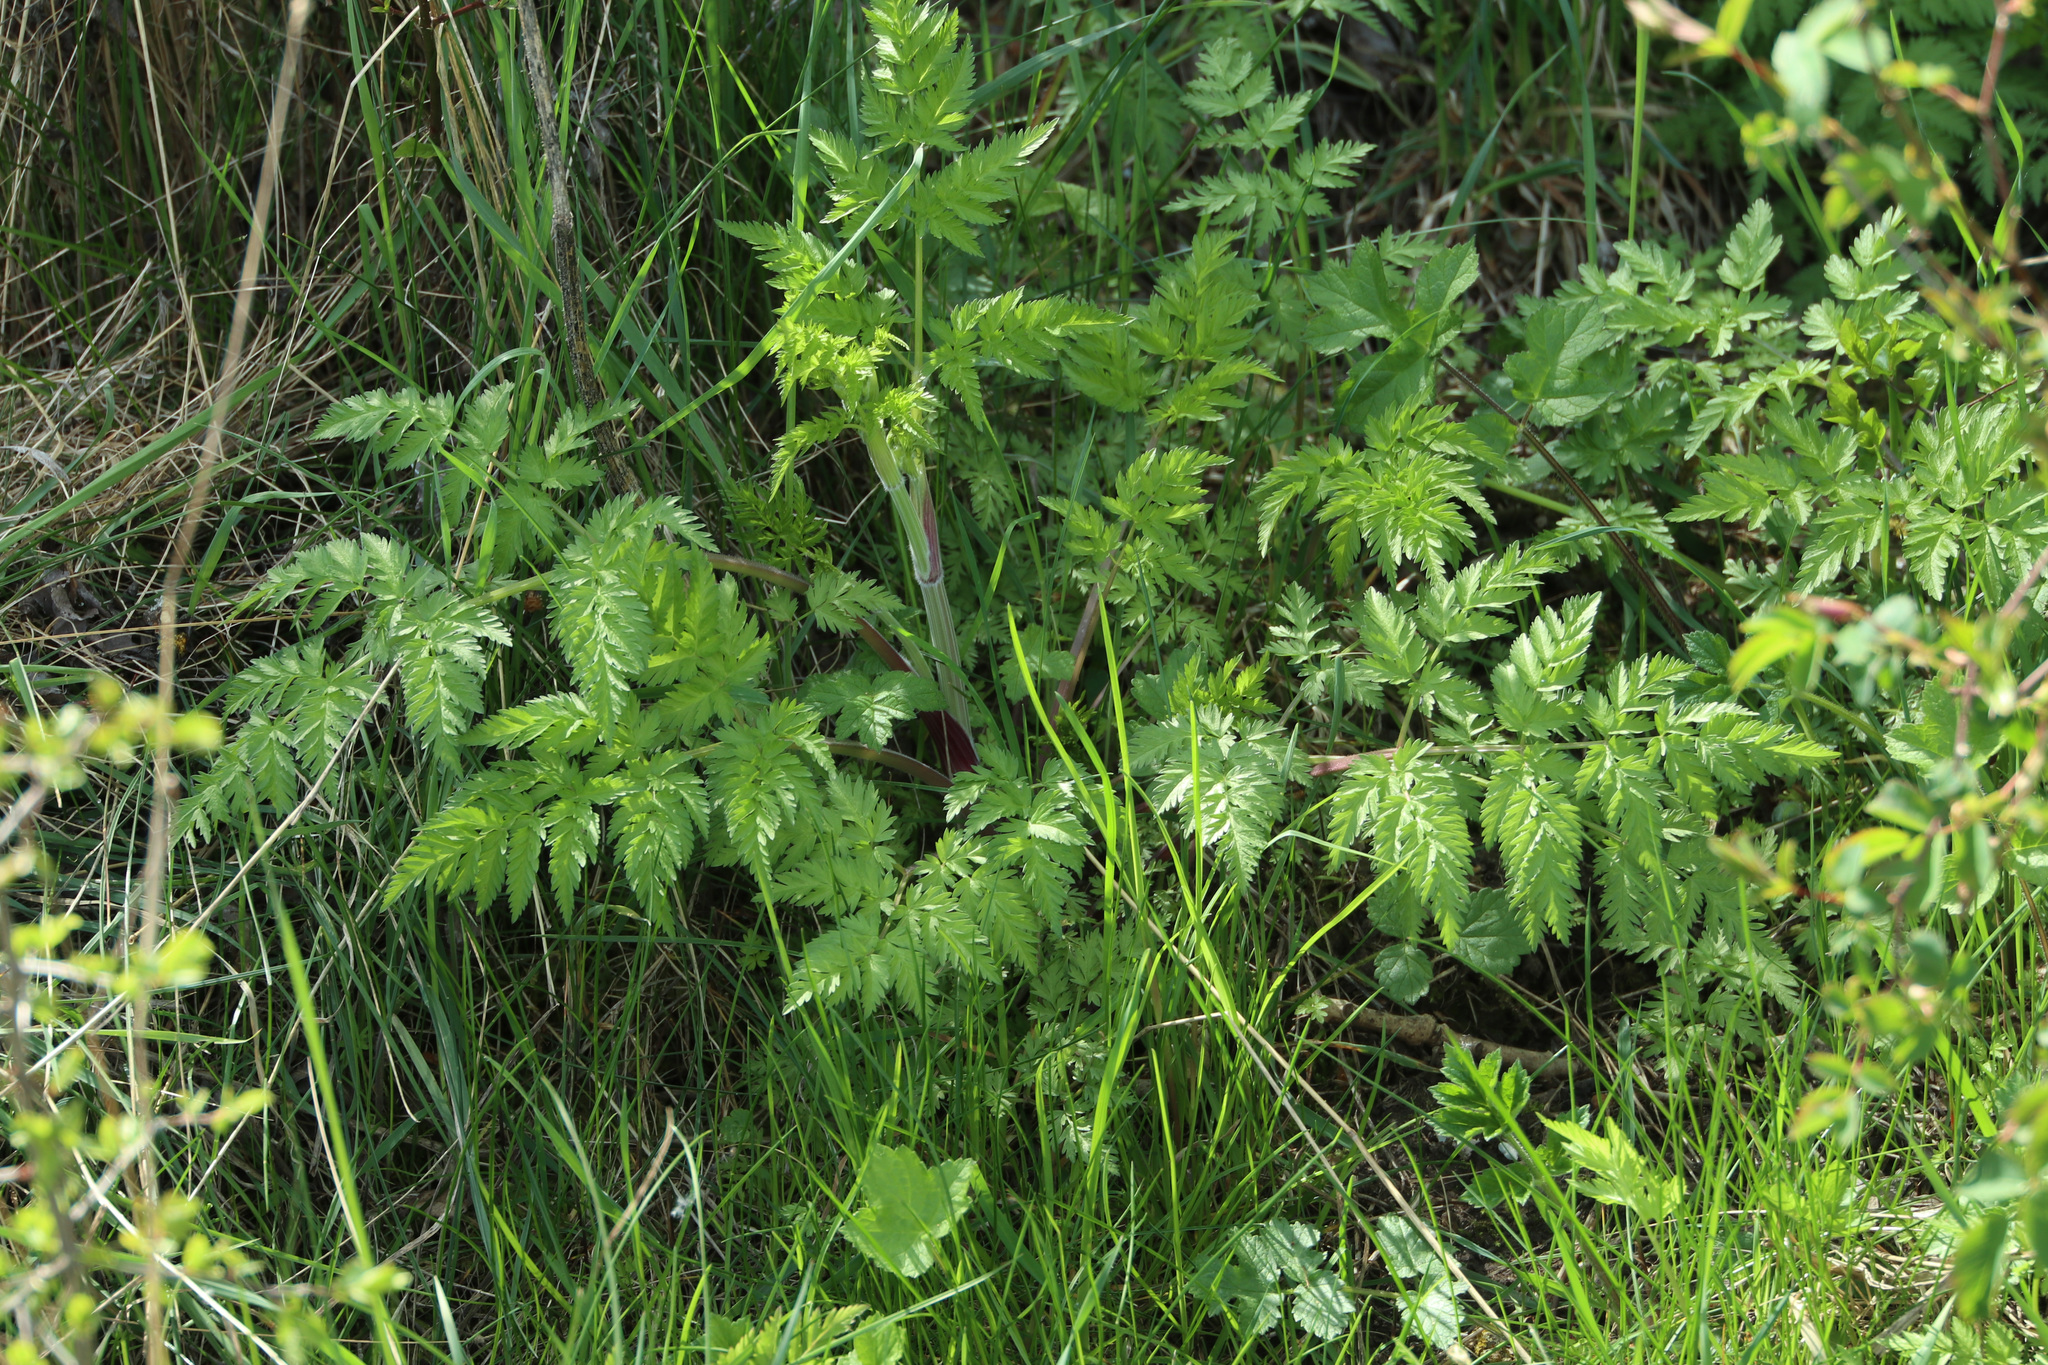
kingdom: Plantae
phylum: Tracheophyta
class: Magnoliopsida
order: Apiales
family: Apiaceae
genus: Anthriscus
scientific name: Anthriscus sylvestris
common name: Cow parsley
